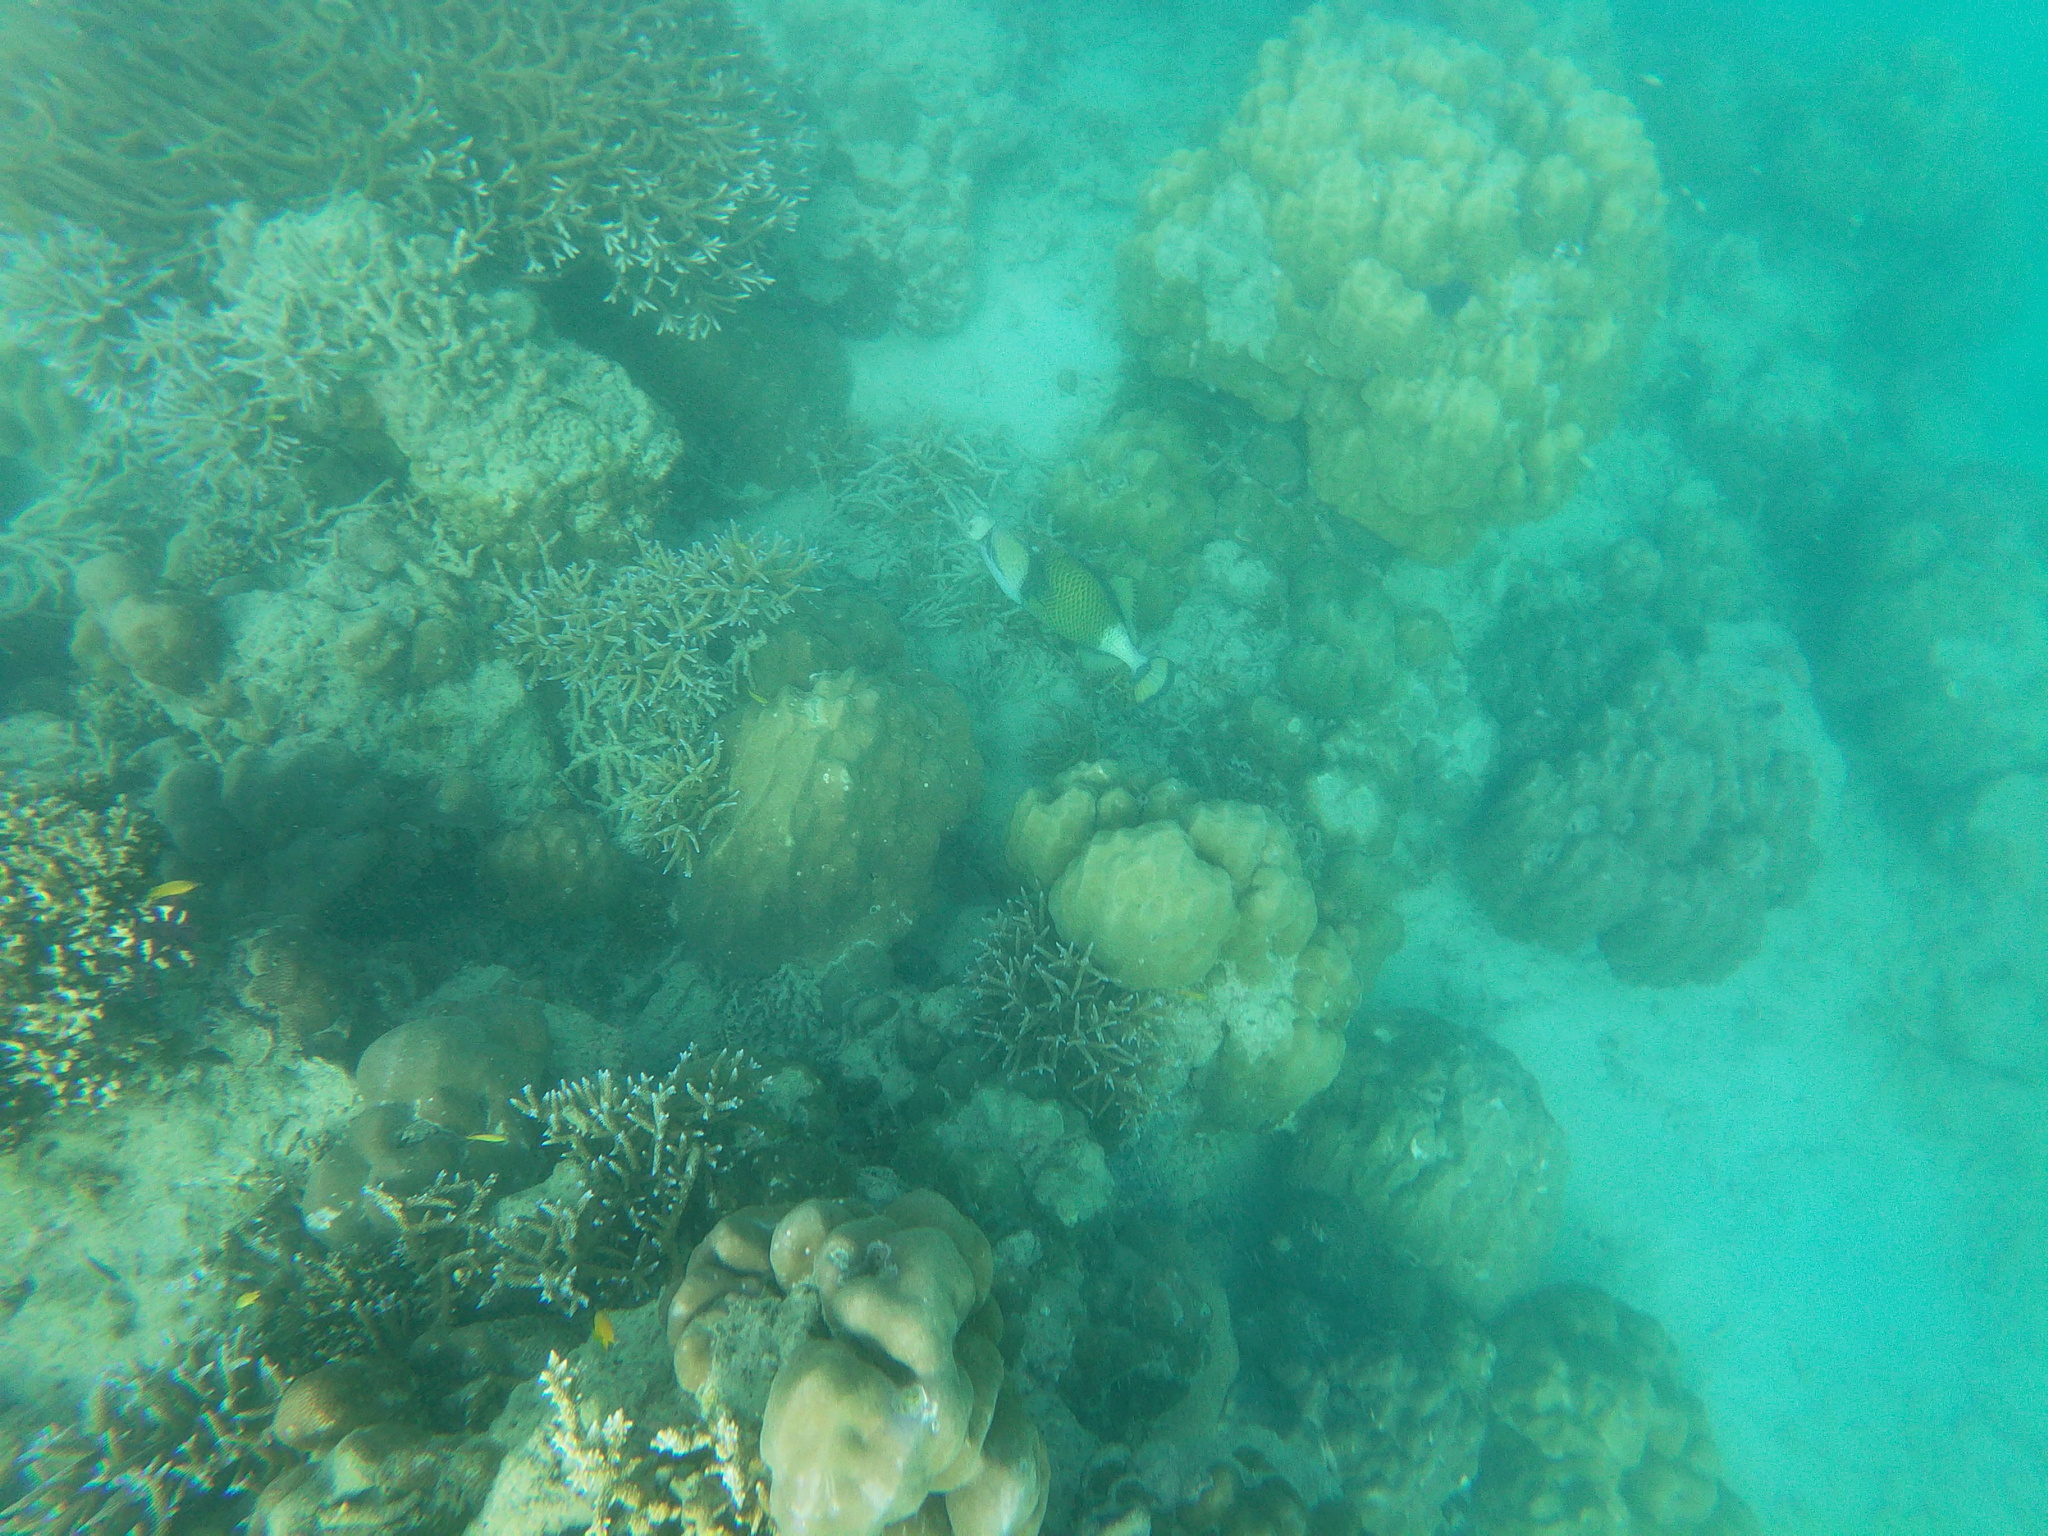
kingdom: Animalia
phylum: Chordata
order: Tetraodontiformes
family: Balistidae
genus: Balistoides
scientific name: Balistoides viridescens
